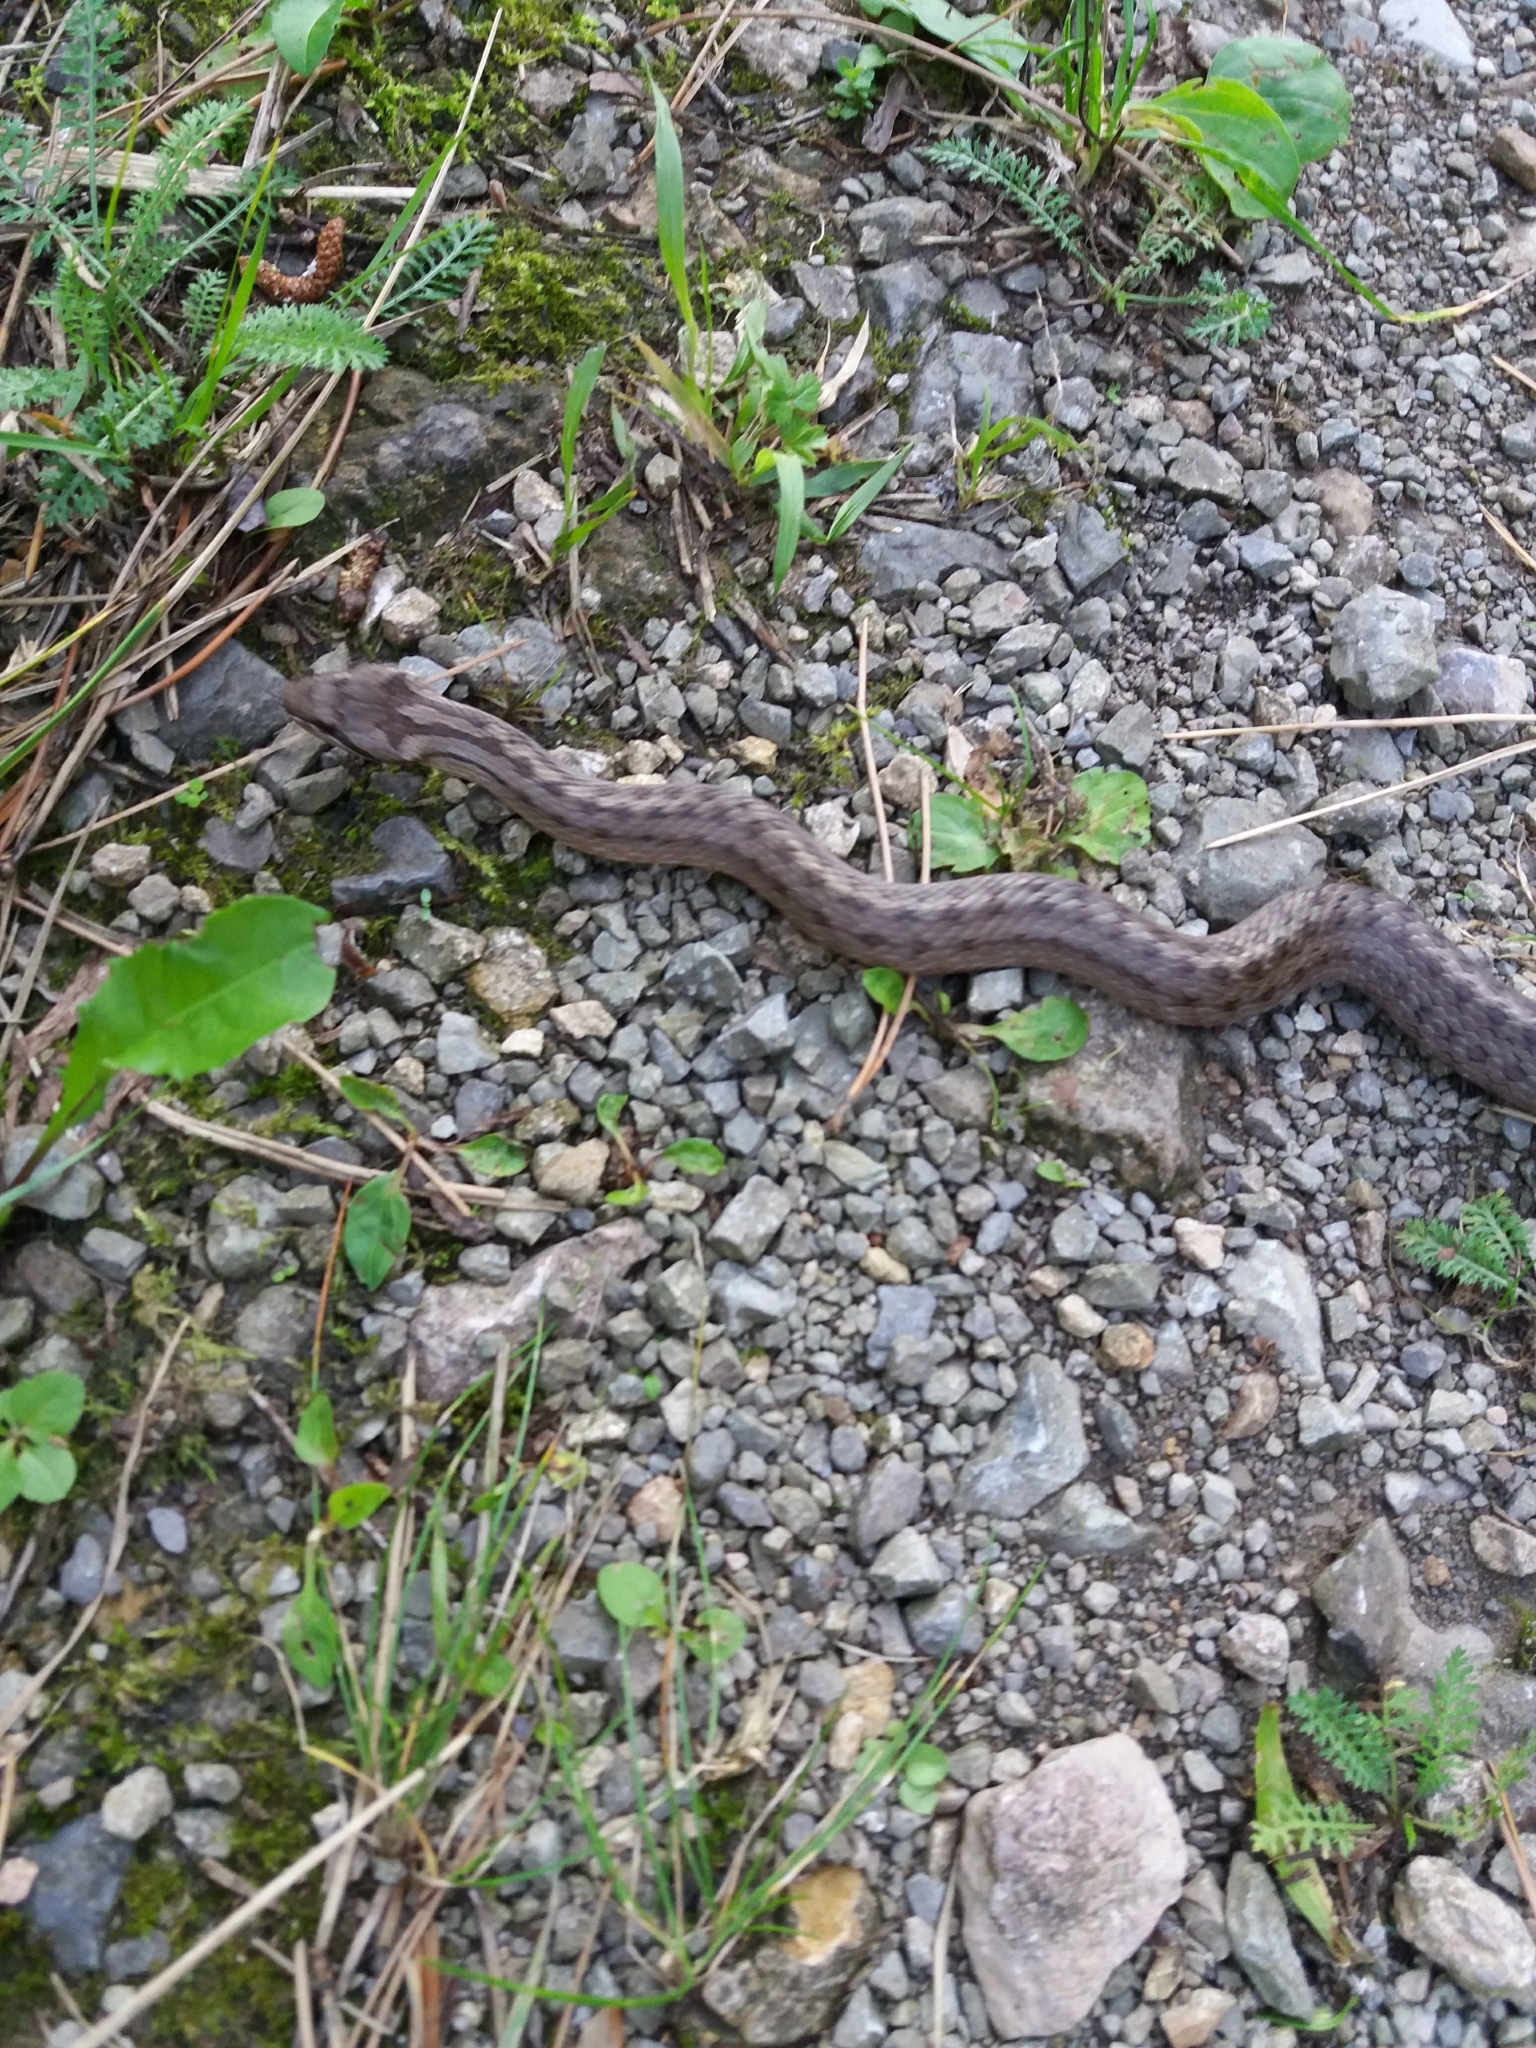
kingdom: Animalia
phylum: Chordata
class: Squamata
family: Colubridae
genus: Coronella
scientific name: Coronella austriaca
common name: Smooth snake
